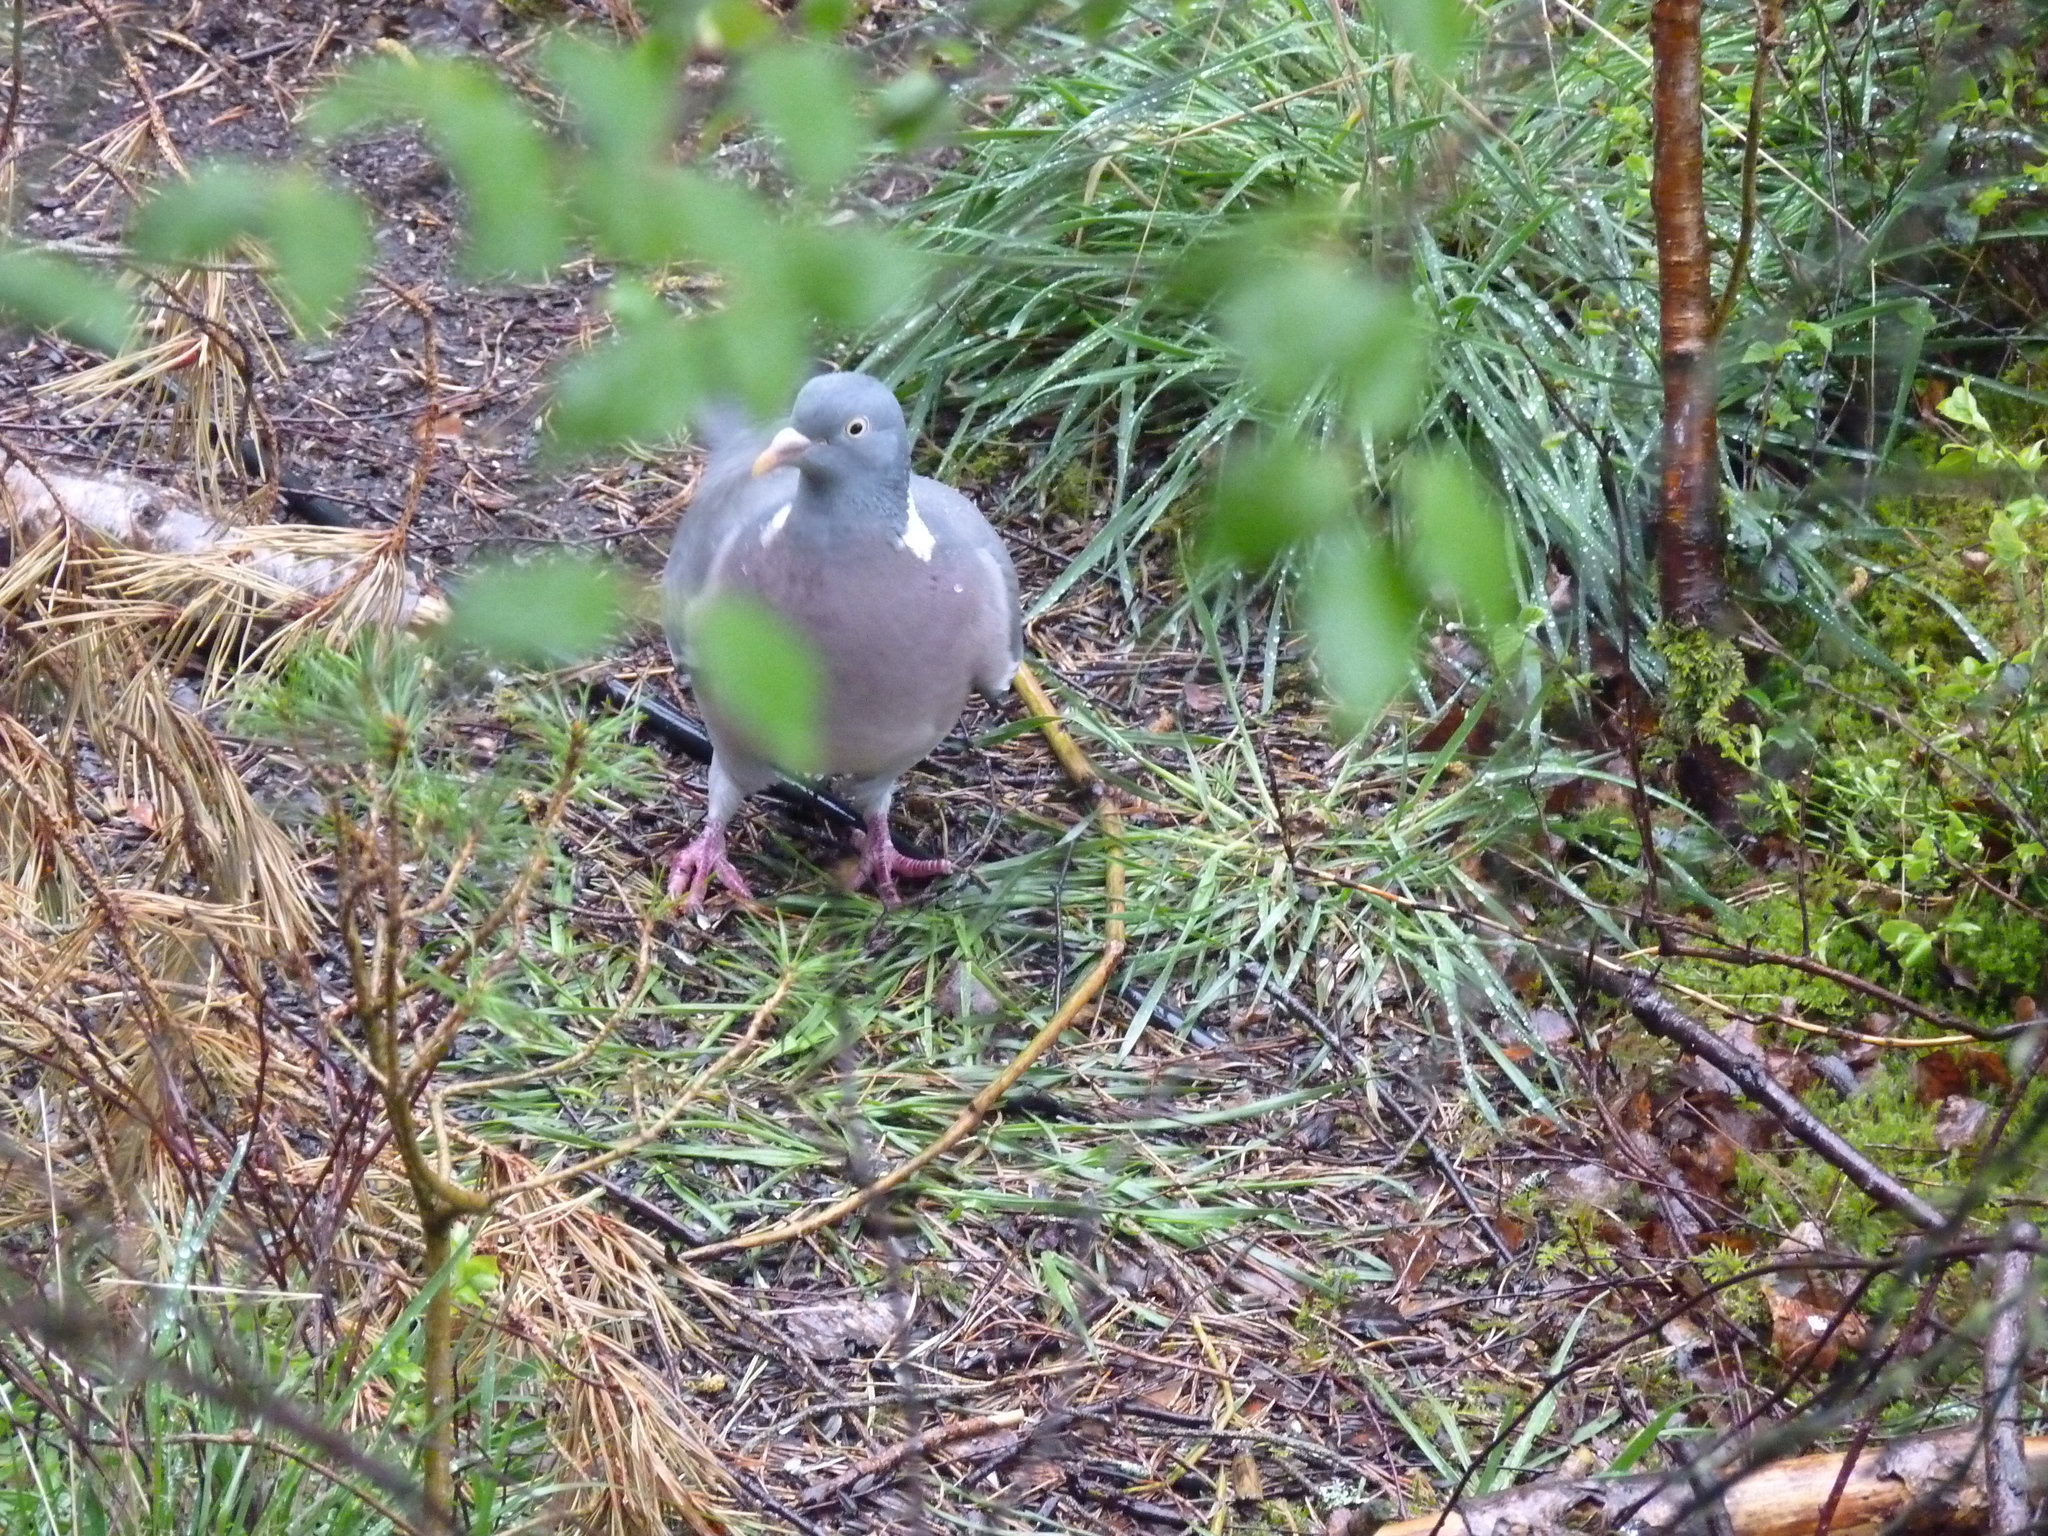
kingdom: Animalia
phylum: Chordata
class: Aves
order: Columbiformes
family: Columbidae
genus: Columba
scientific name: Columba palumbus
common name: Common wood pigeon
